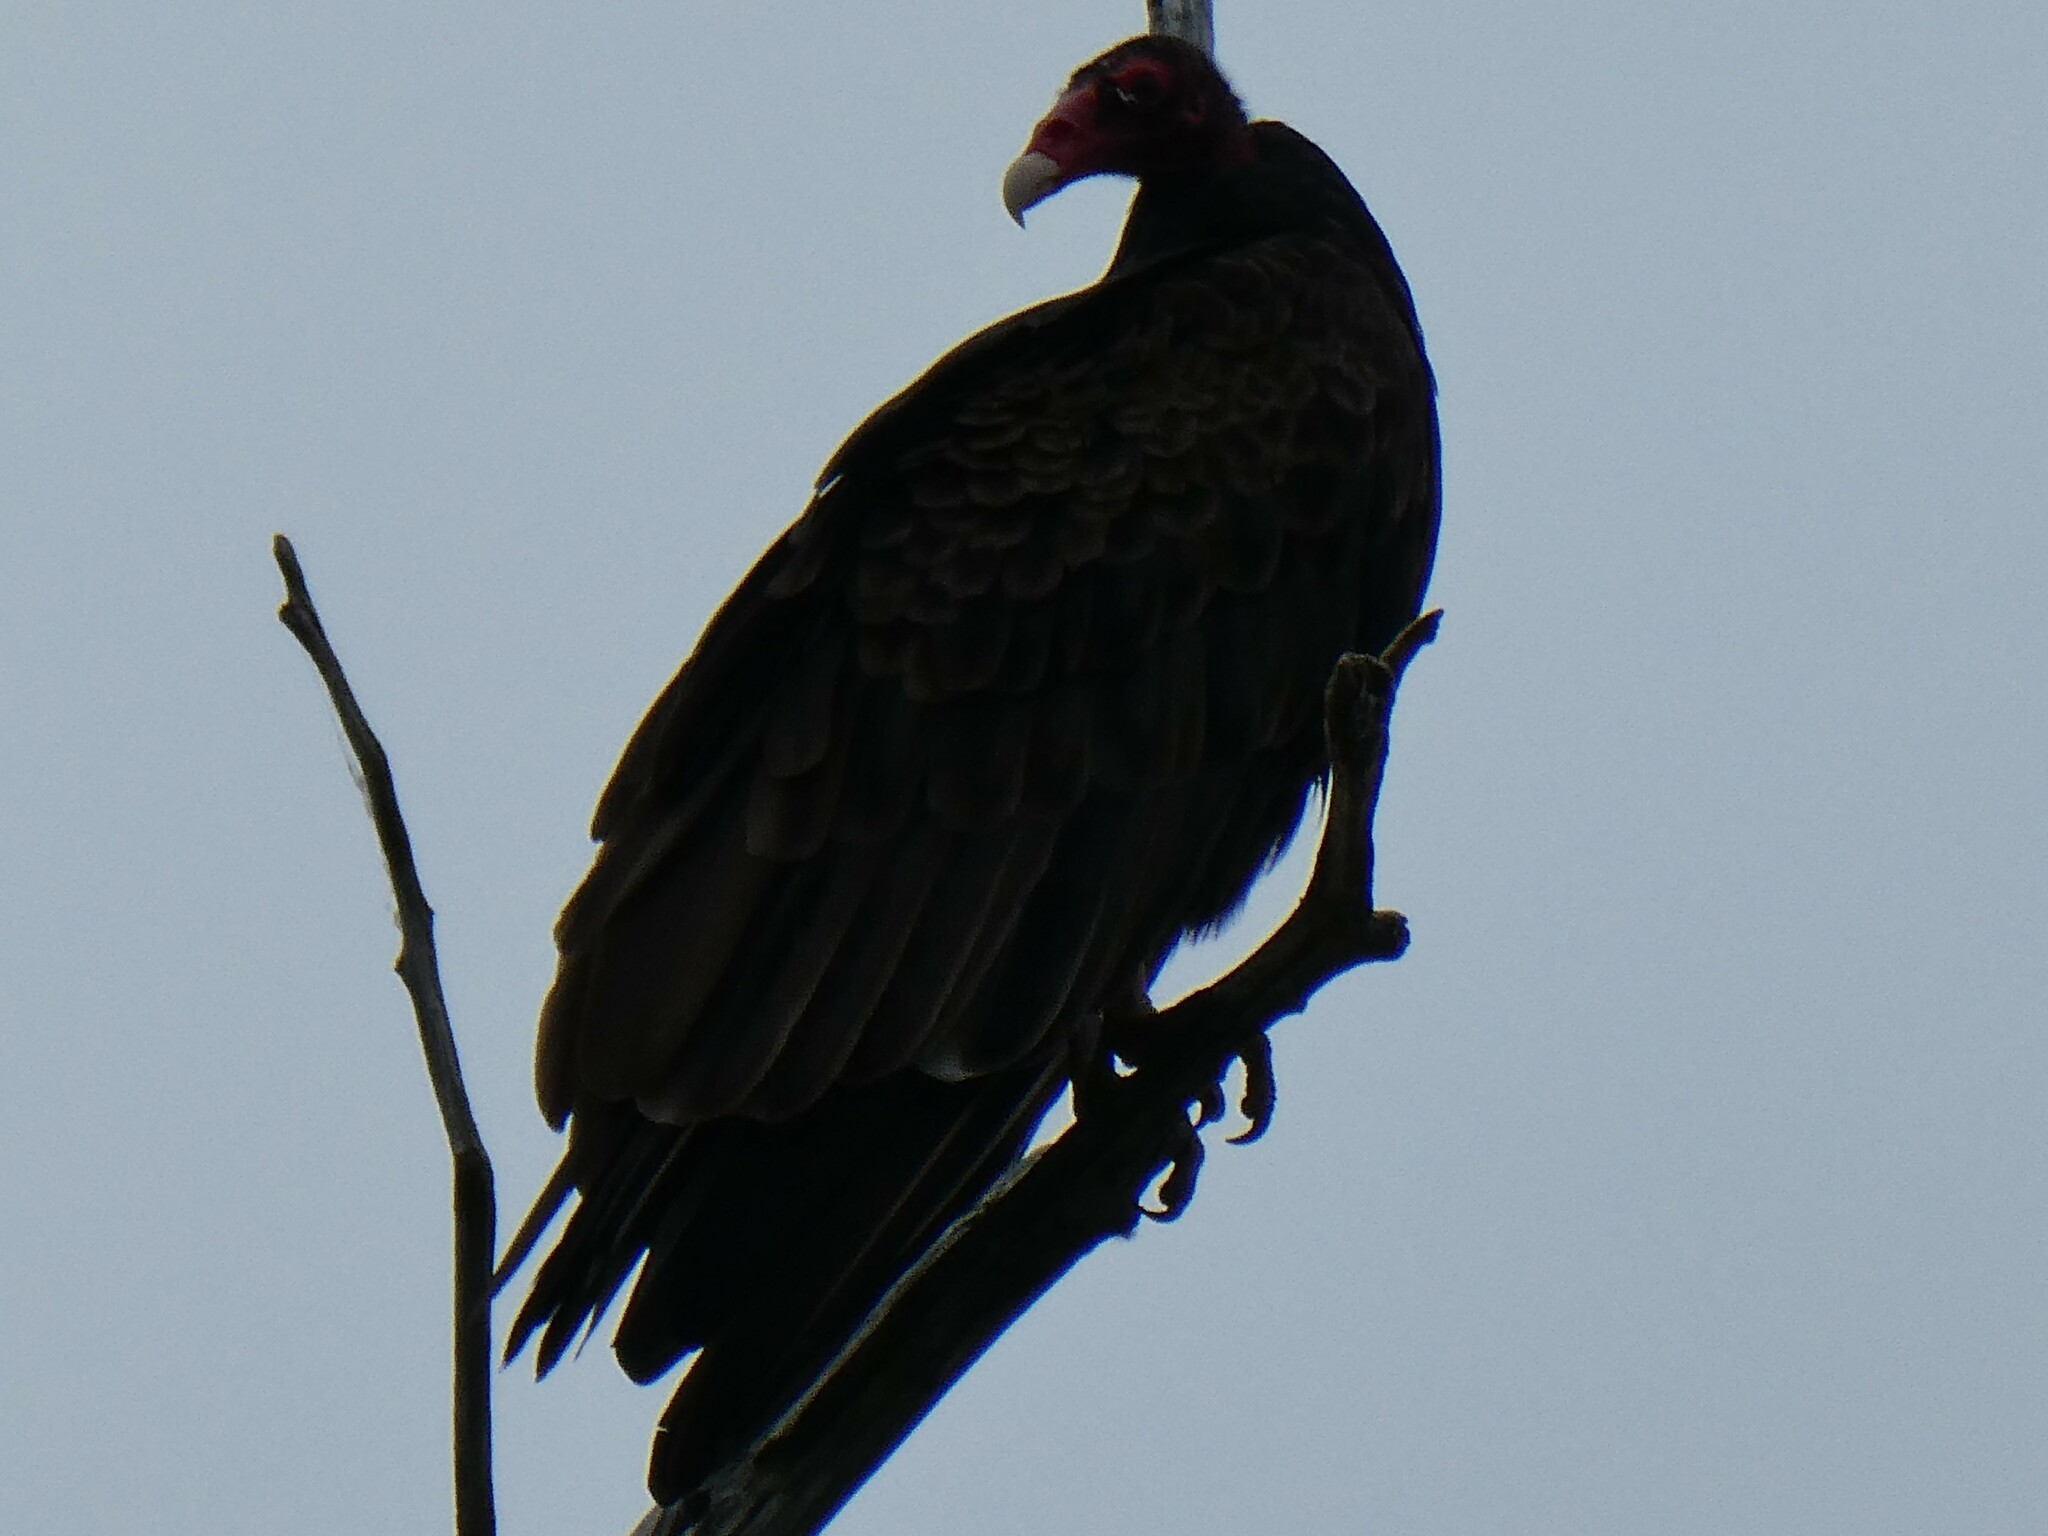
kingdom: Animalia
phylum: Chordata
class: Aves
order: Accipitriformes
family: Cathartidae
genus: Cathartes
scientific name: Cathartes aura
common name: Turkey vulture
